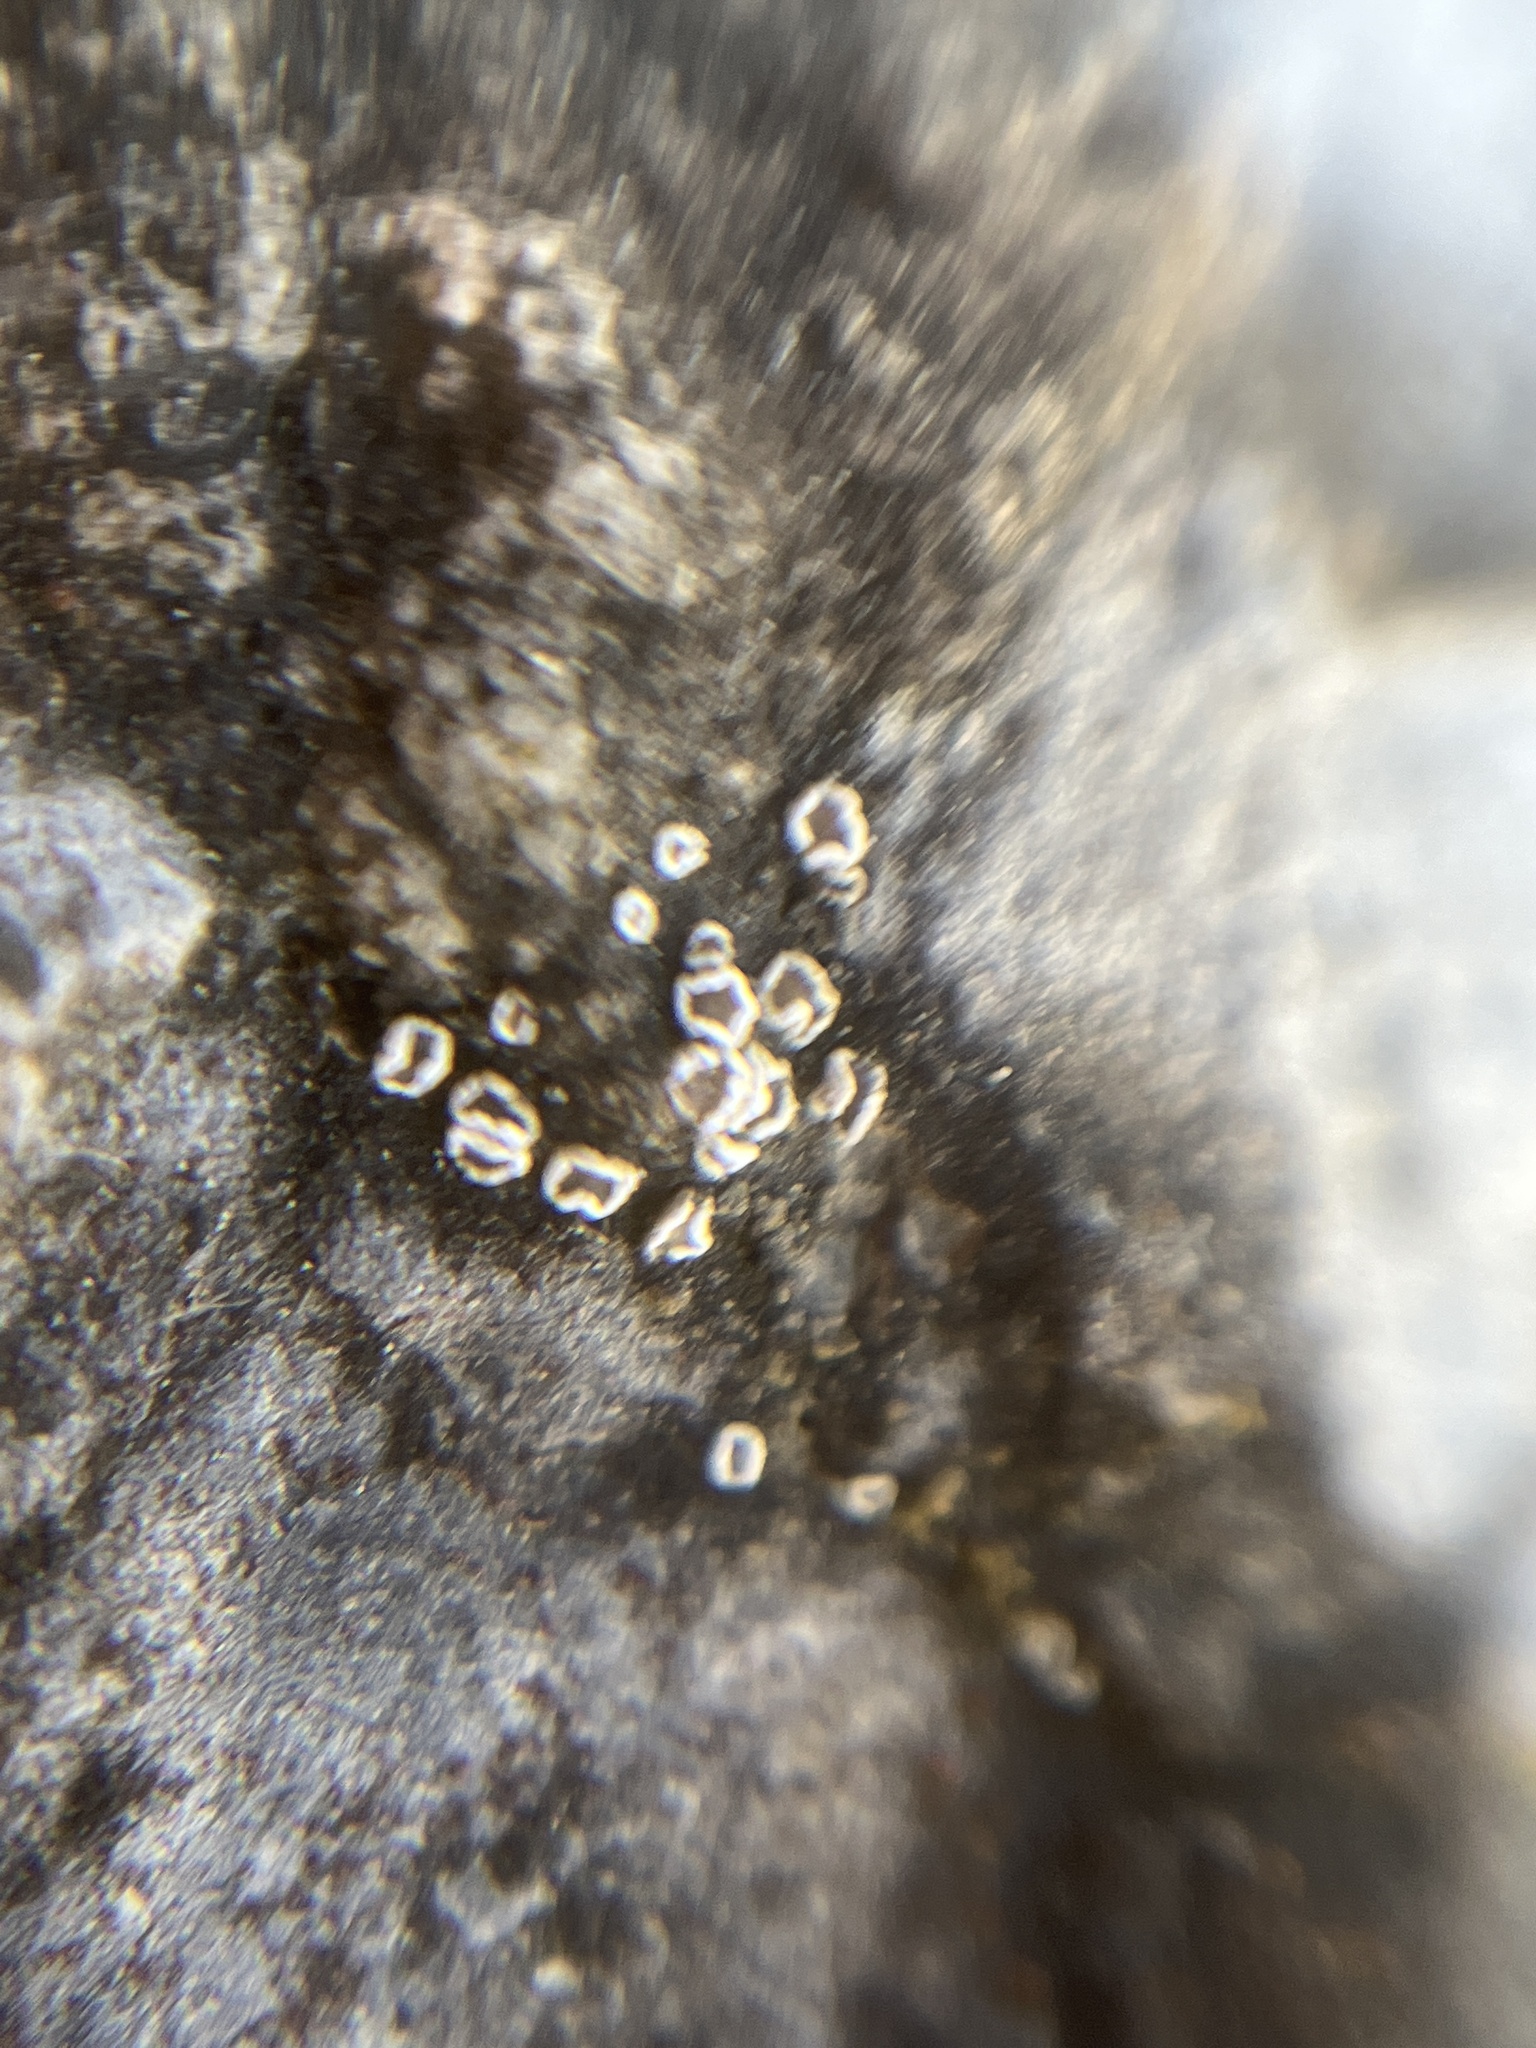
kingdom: Fungi
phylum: Ascomycota
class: Lecanoromycetes
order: Lecanorales
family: Lecanoraceae
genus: Polyozosia
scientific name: Polyozosia dispersa
